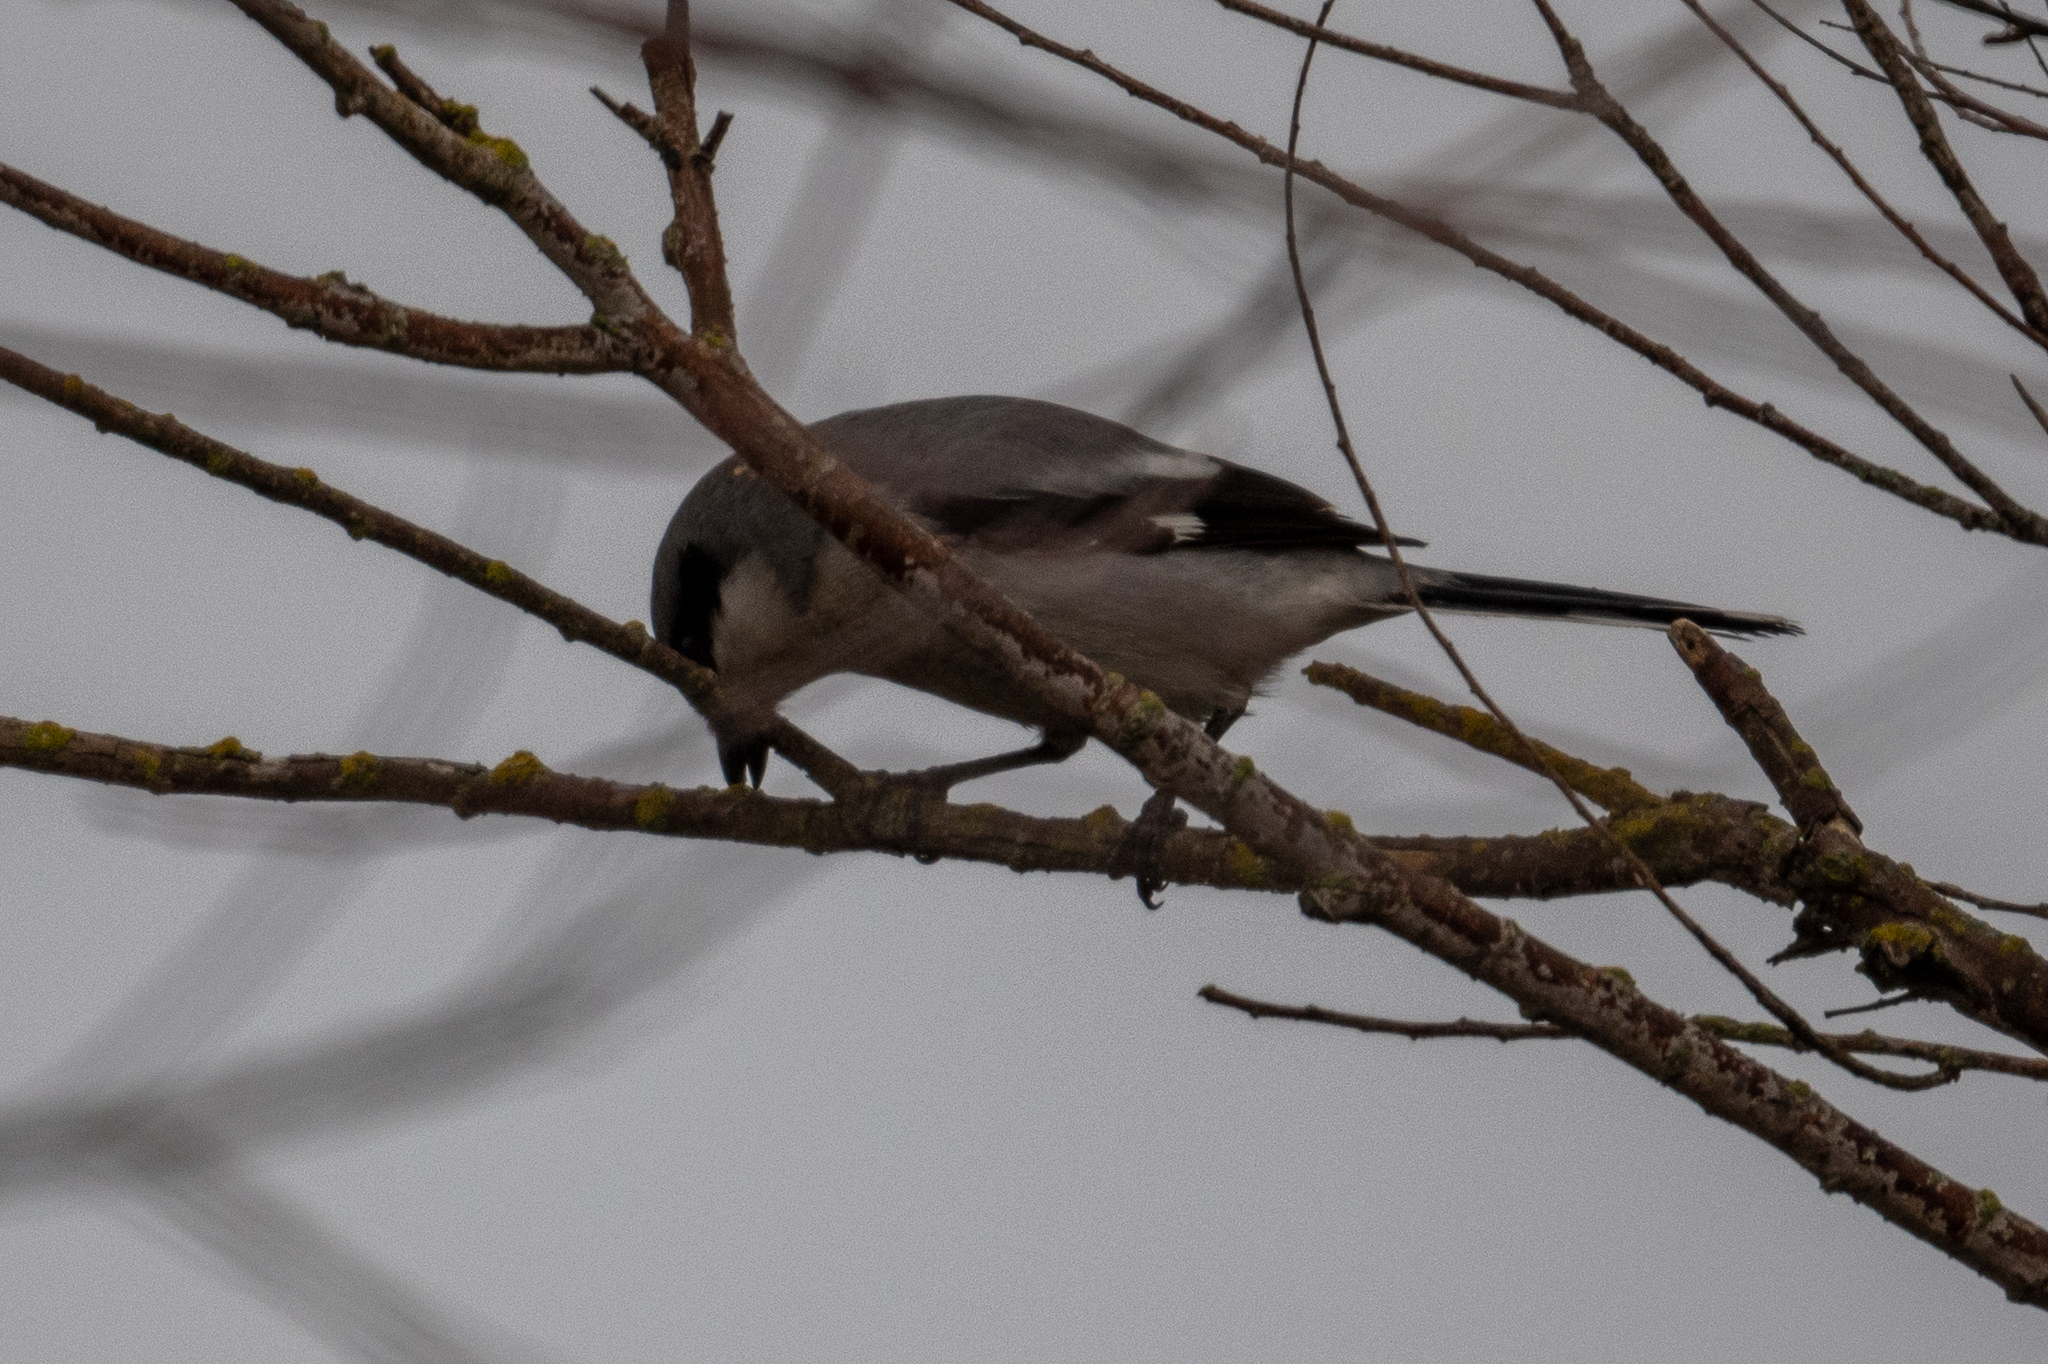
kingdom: Animalia
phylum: Chordata
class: Aves
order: Passeriformes
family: Laniidae
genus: Lanius
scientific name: Lanius ludovicianus
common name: Loggerhead shrike
